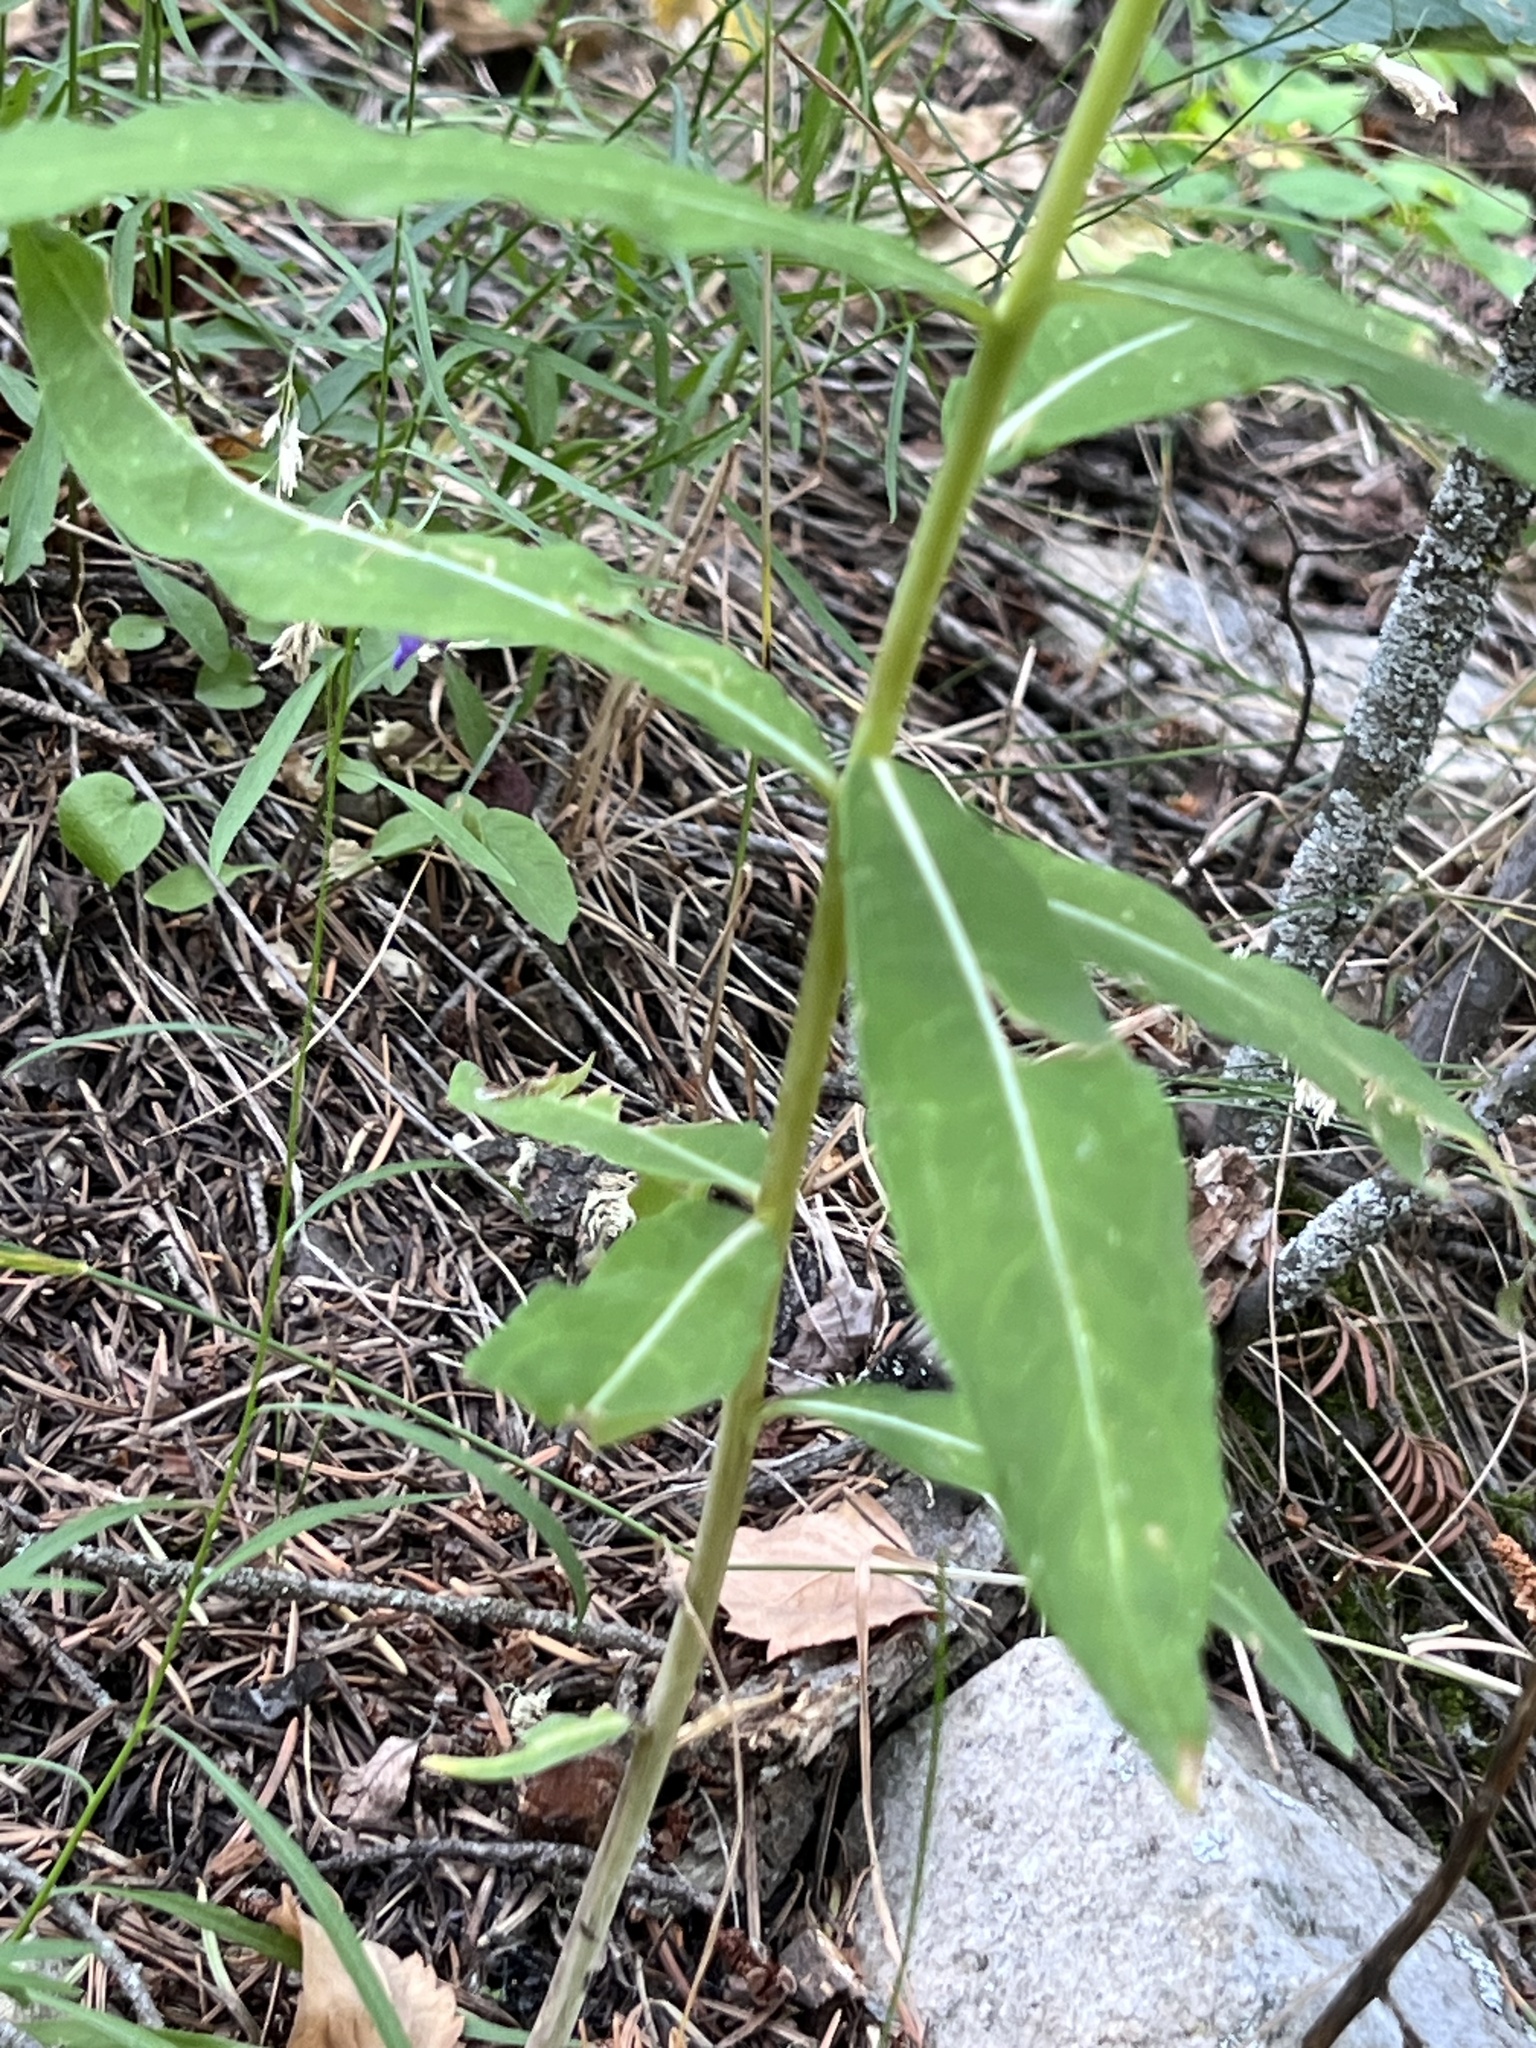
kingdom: Plantae
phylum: Tracheophyta
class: Magnoliopsida
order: Myrtales
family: Onagraceae
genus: Chamaenerion
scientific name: Chamaenerion angustifolium
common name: Fireweed
